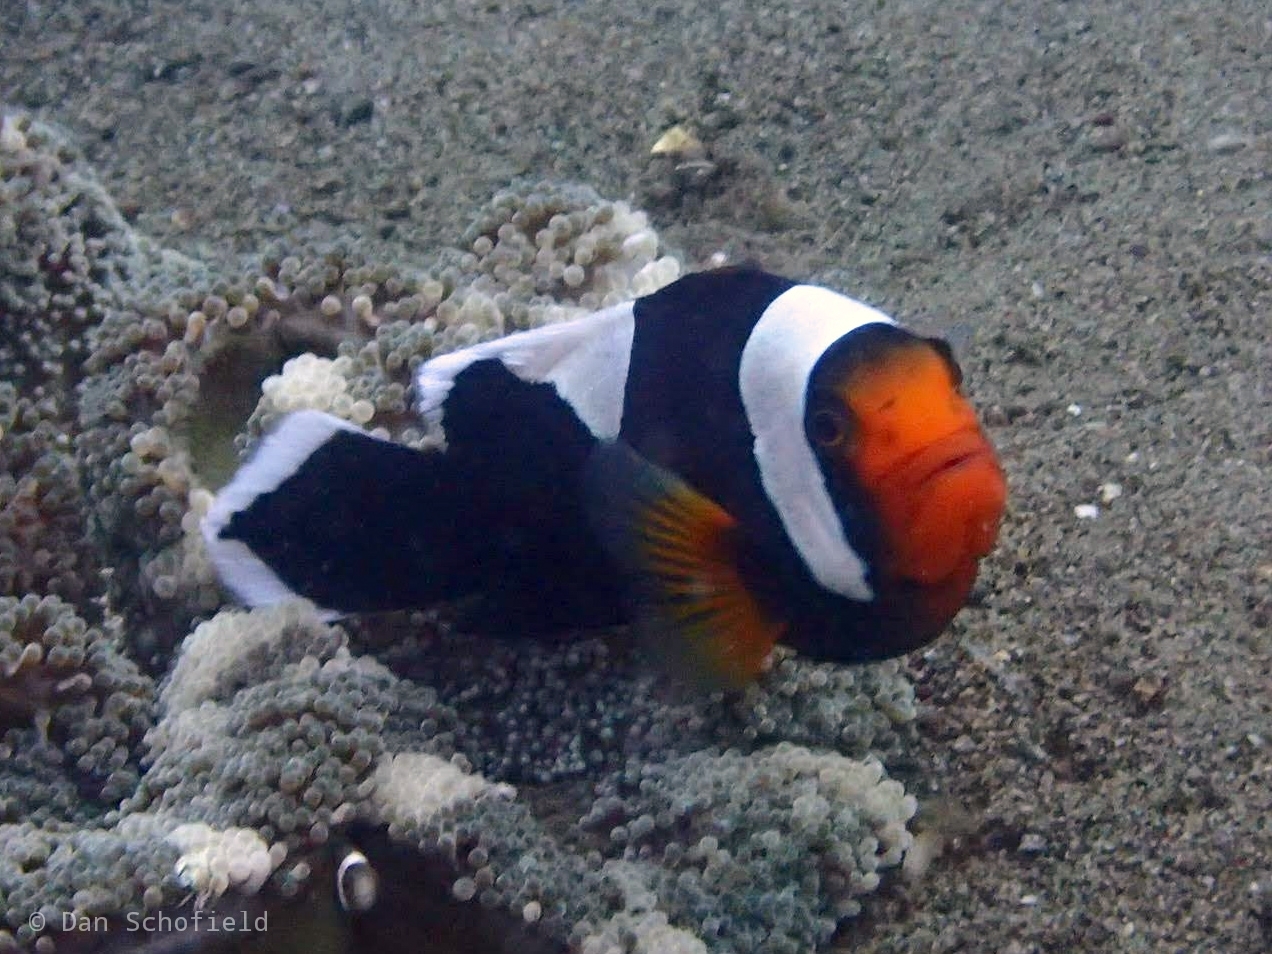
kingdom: Animalia
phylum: Chordata
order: Perciformes
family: Pomacentridae
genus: Amphiprion
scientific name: Amphiprion polymnus
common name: Saddleback anemonefish
